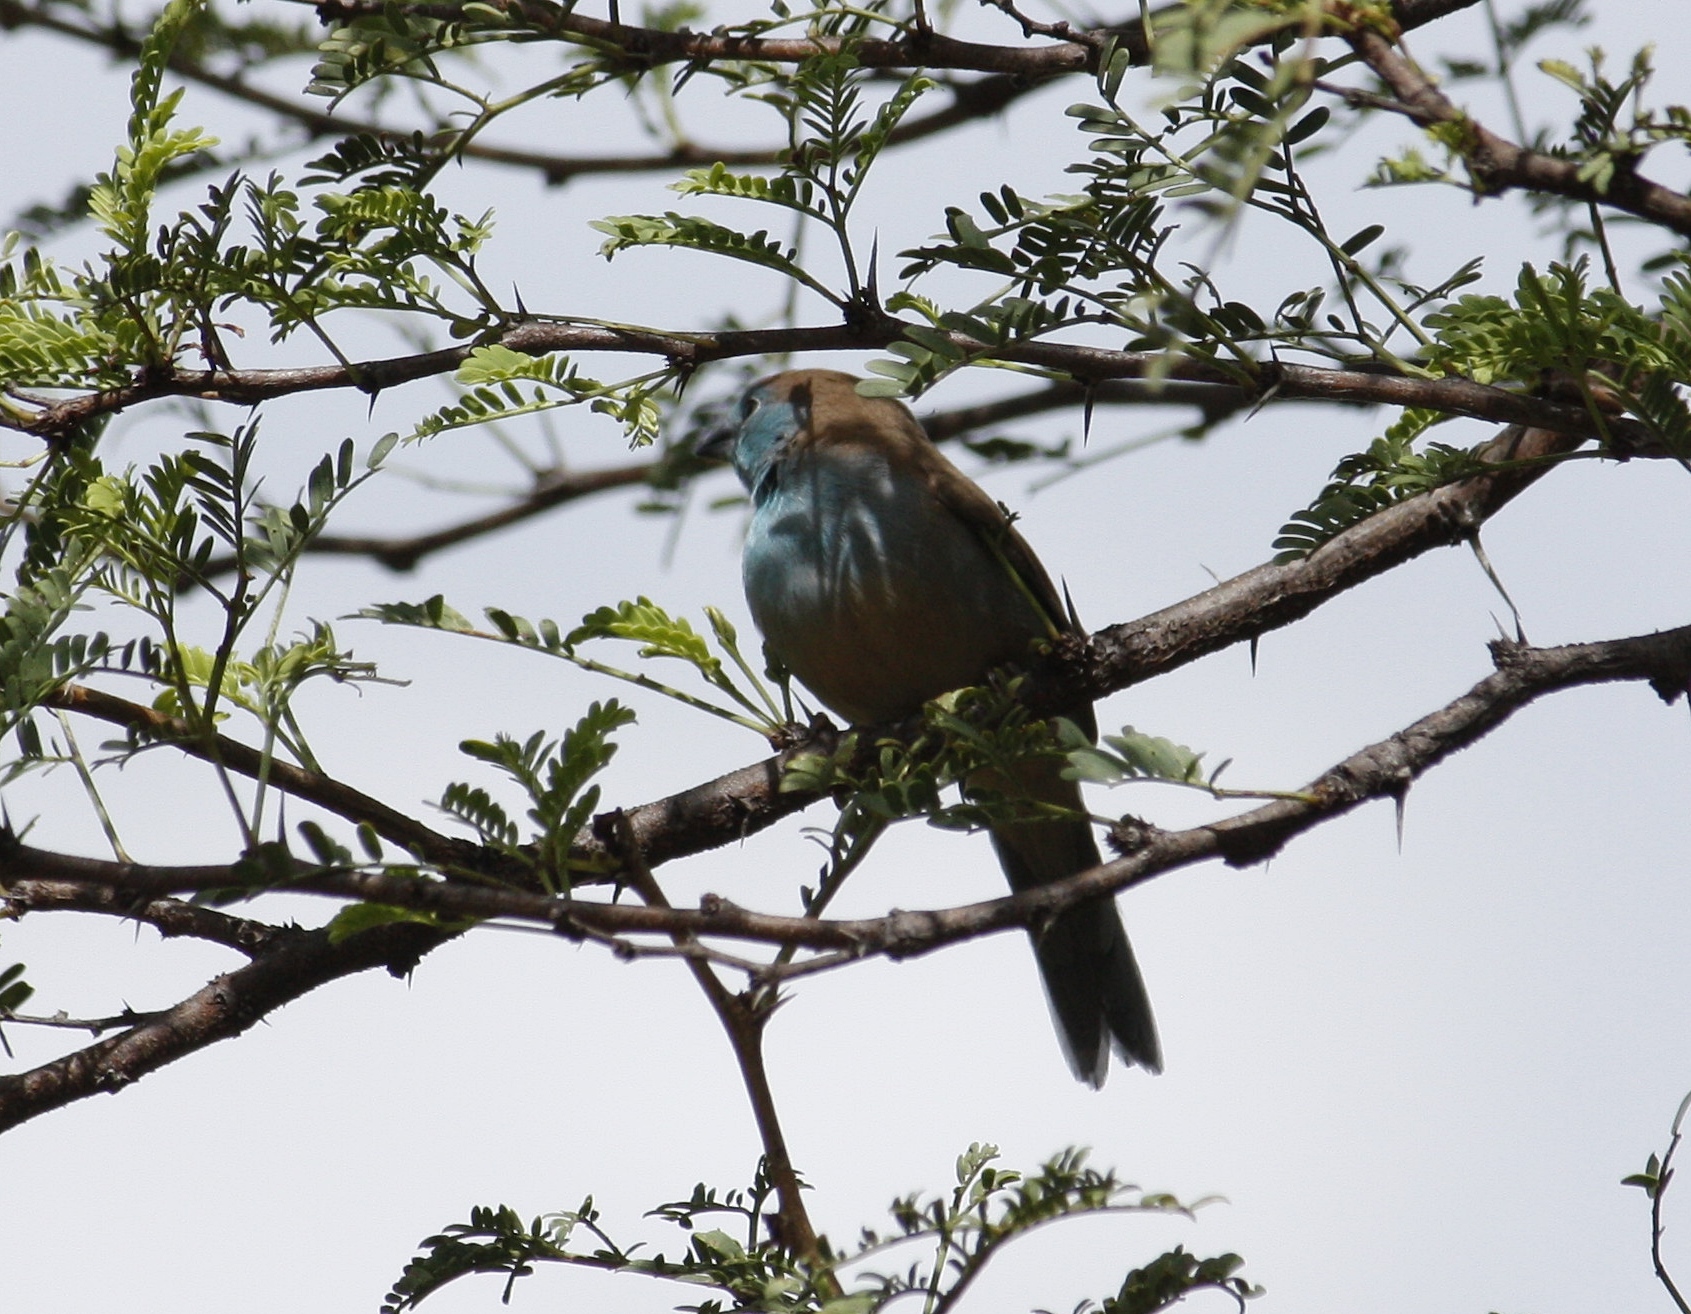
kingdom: Animalia
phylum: Chordata
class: Aves
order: Passeriformes
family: Estrildidae
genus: Uraeginthus
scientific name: Uraeginthus angolensis
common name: Blue waxbill
